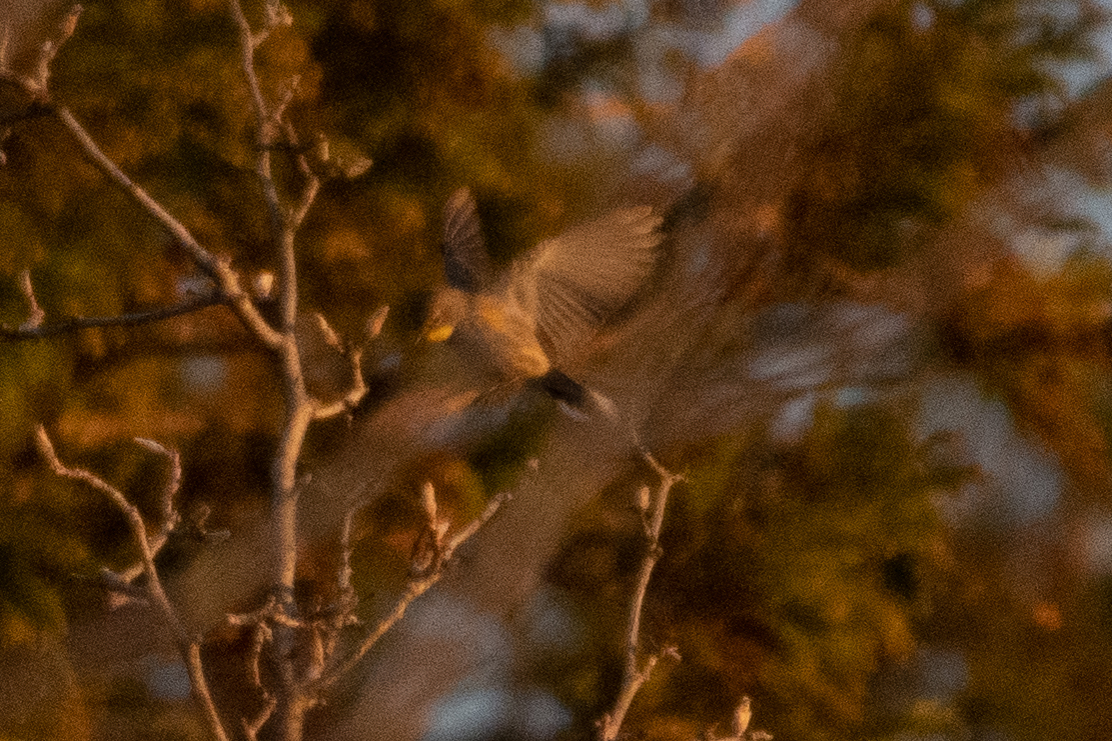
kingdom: Animalia
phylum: Chordata
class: Aves
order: Passeriformes
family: Parulidae
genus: Setophaga
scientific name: Setophaga coronata
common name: Myrtle warbler
